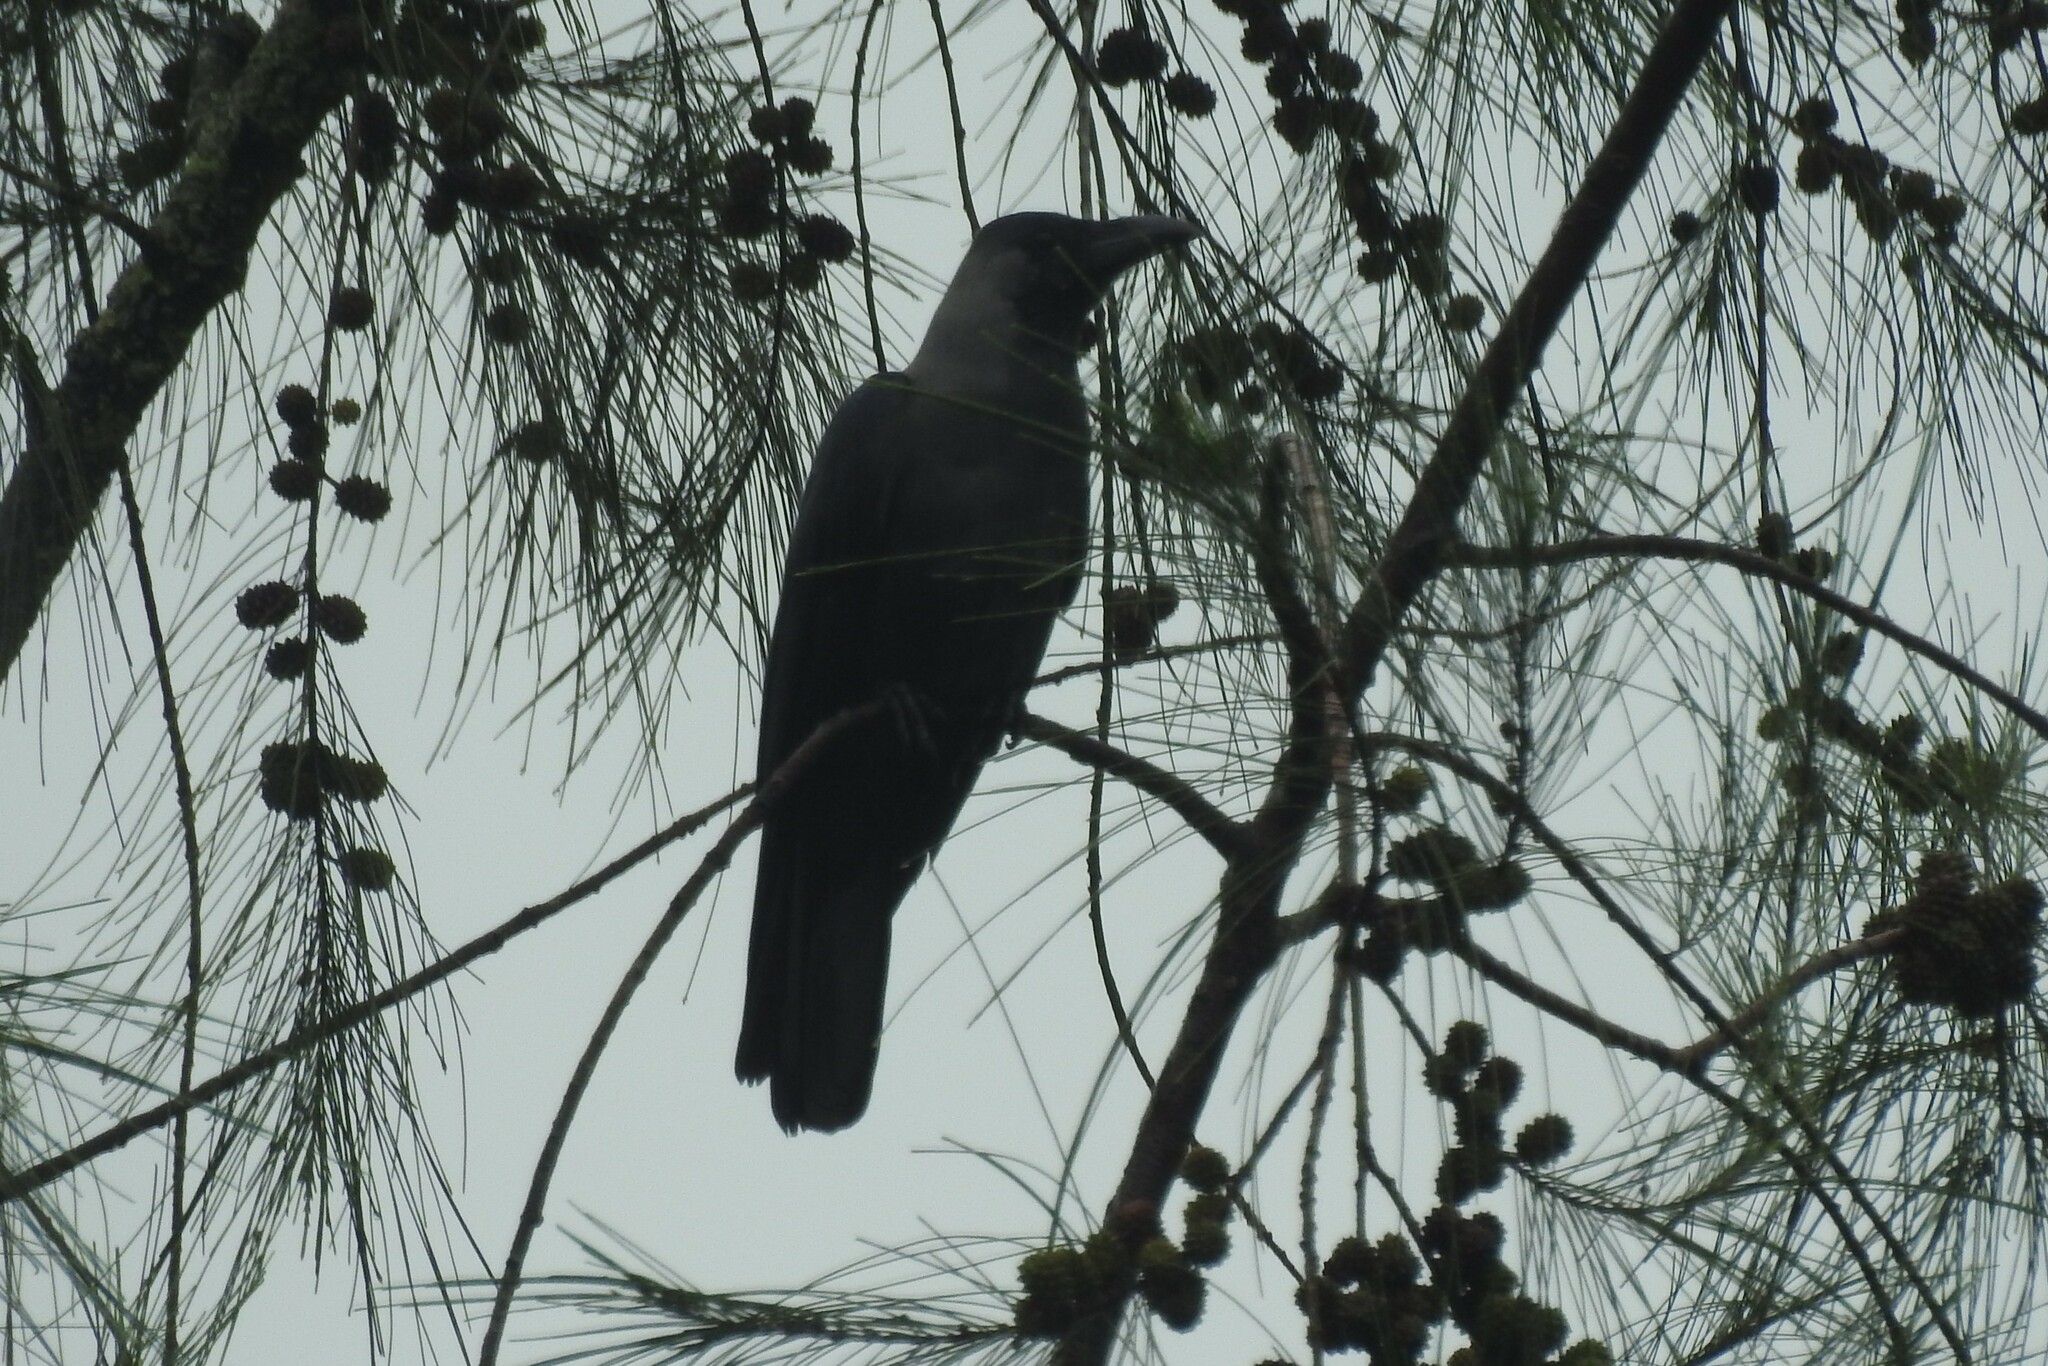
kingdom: Animalia
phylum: Chordata
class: Aves
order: Passeriformes
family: Corvidae
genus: Corvus
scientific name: Corvus splendens
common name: House crow
